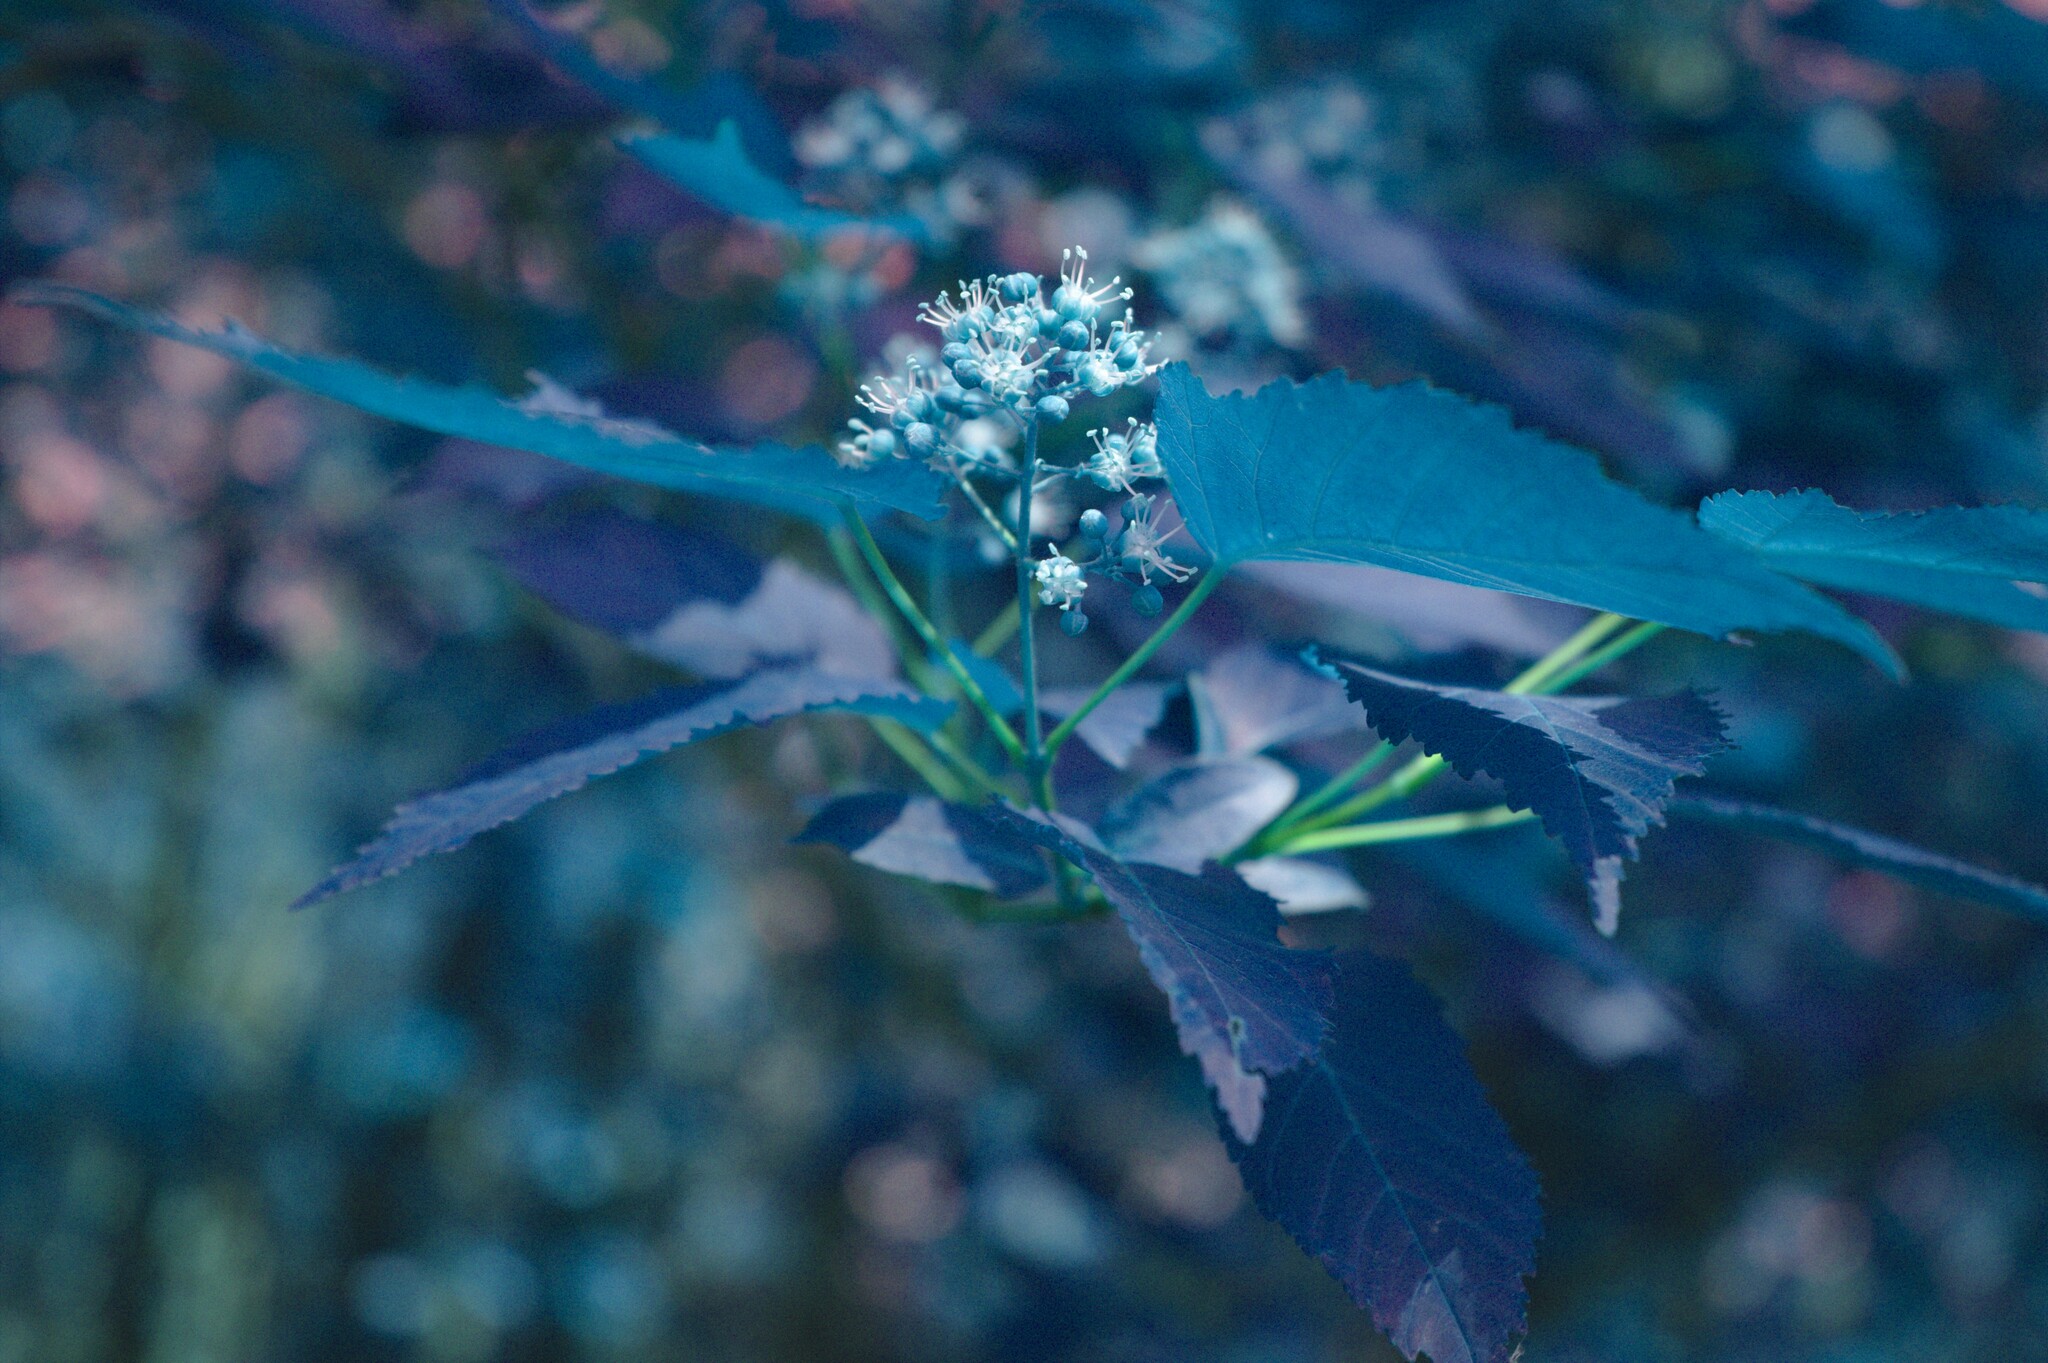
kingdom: Plantae
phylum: Tracheophyta
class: Magnoliopsida
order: Sapindales
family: Sapindaceae
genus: Acer
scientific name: Acer tataricum
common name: Tartar maple
